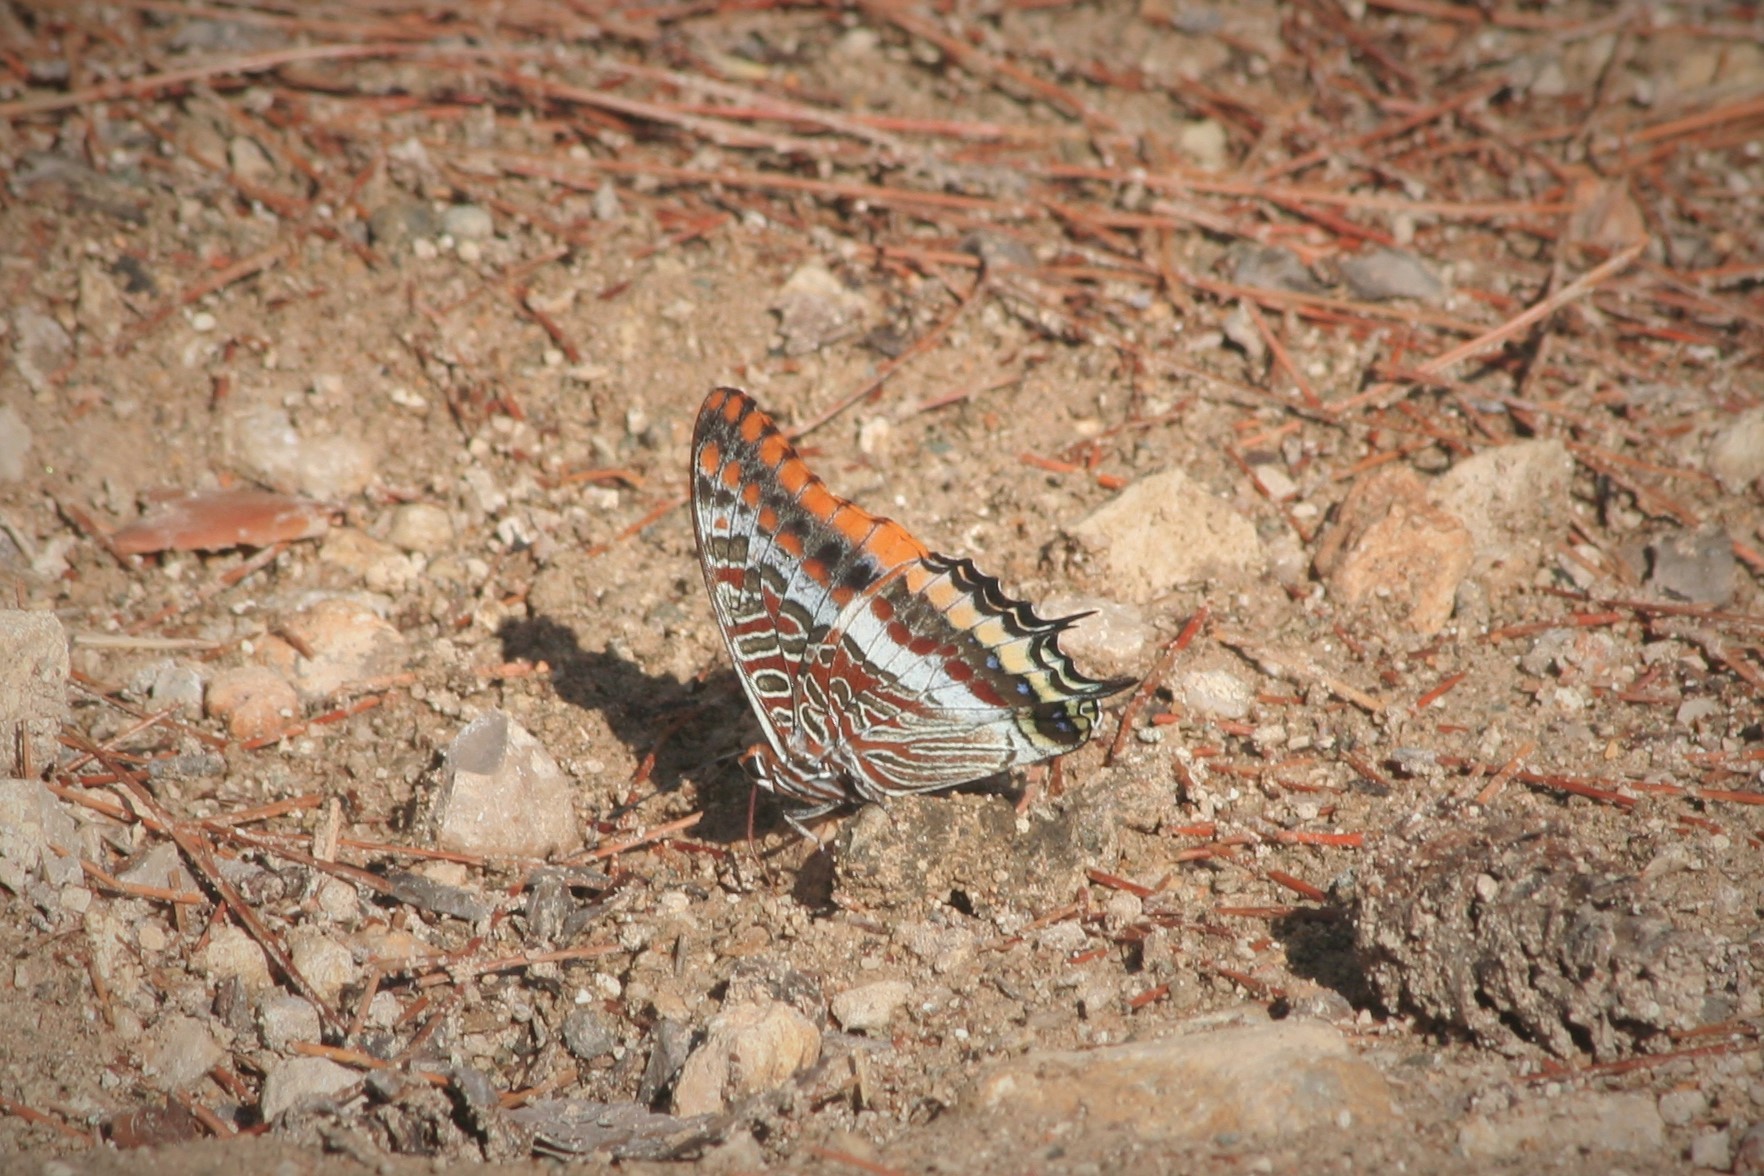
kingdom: Animalia
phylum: Arthropoda
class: Insecta
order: Lepidoptera
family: Nymphalidae
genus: Charaxes
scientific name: Charaxes jasius
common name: Two tailed pasha
